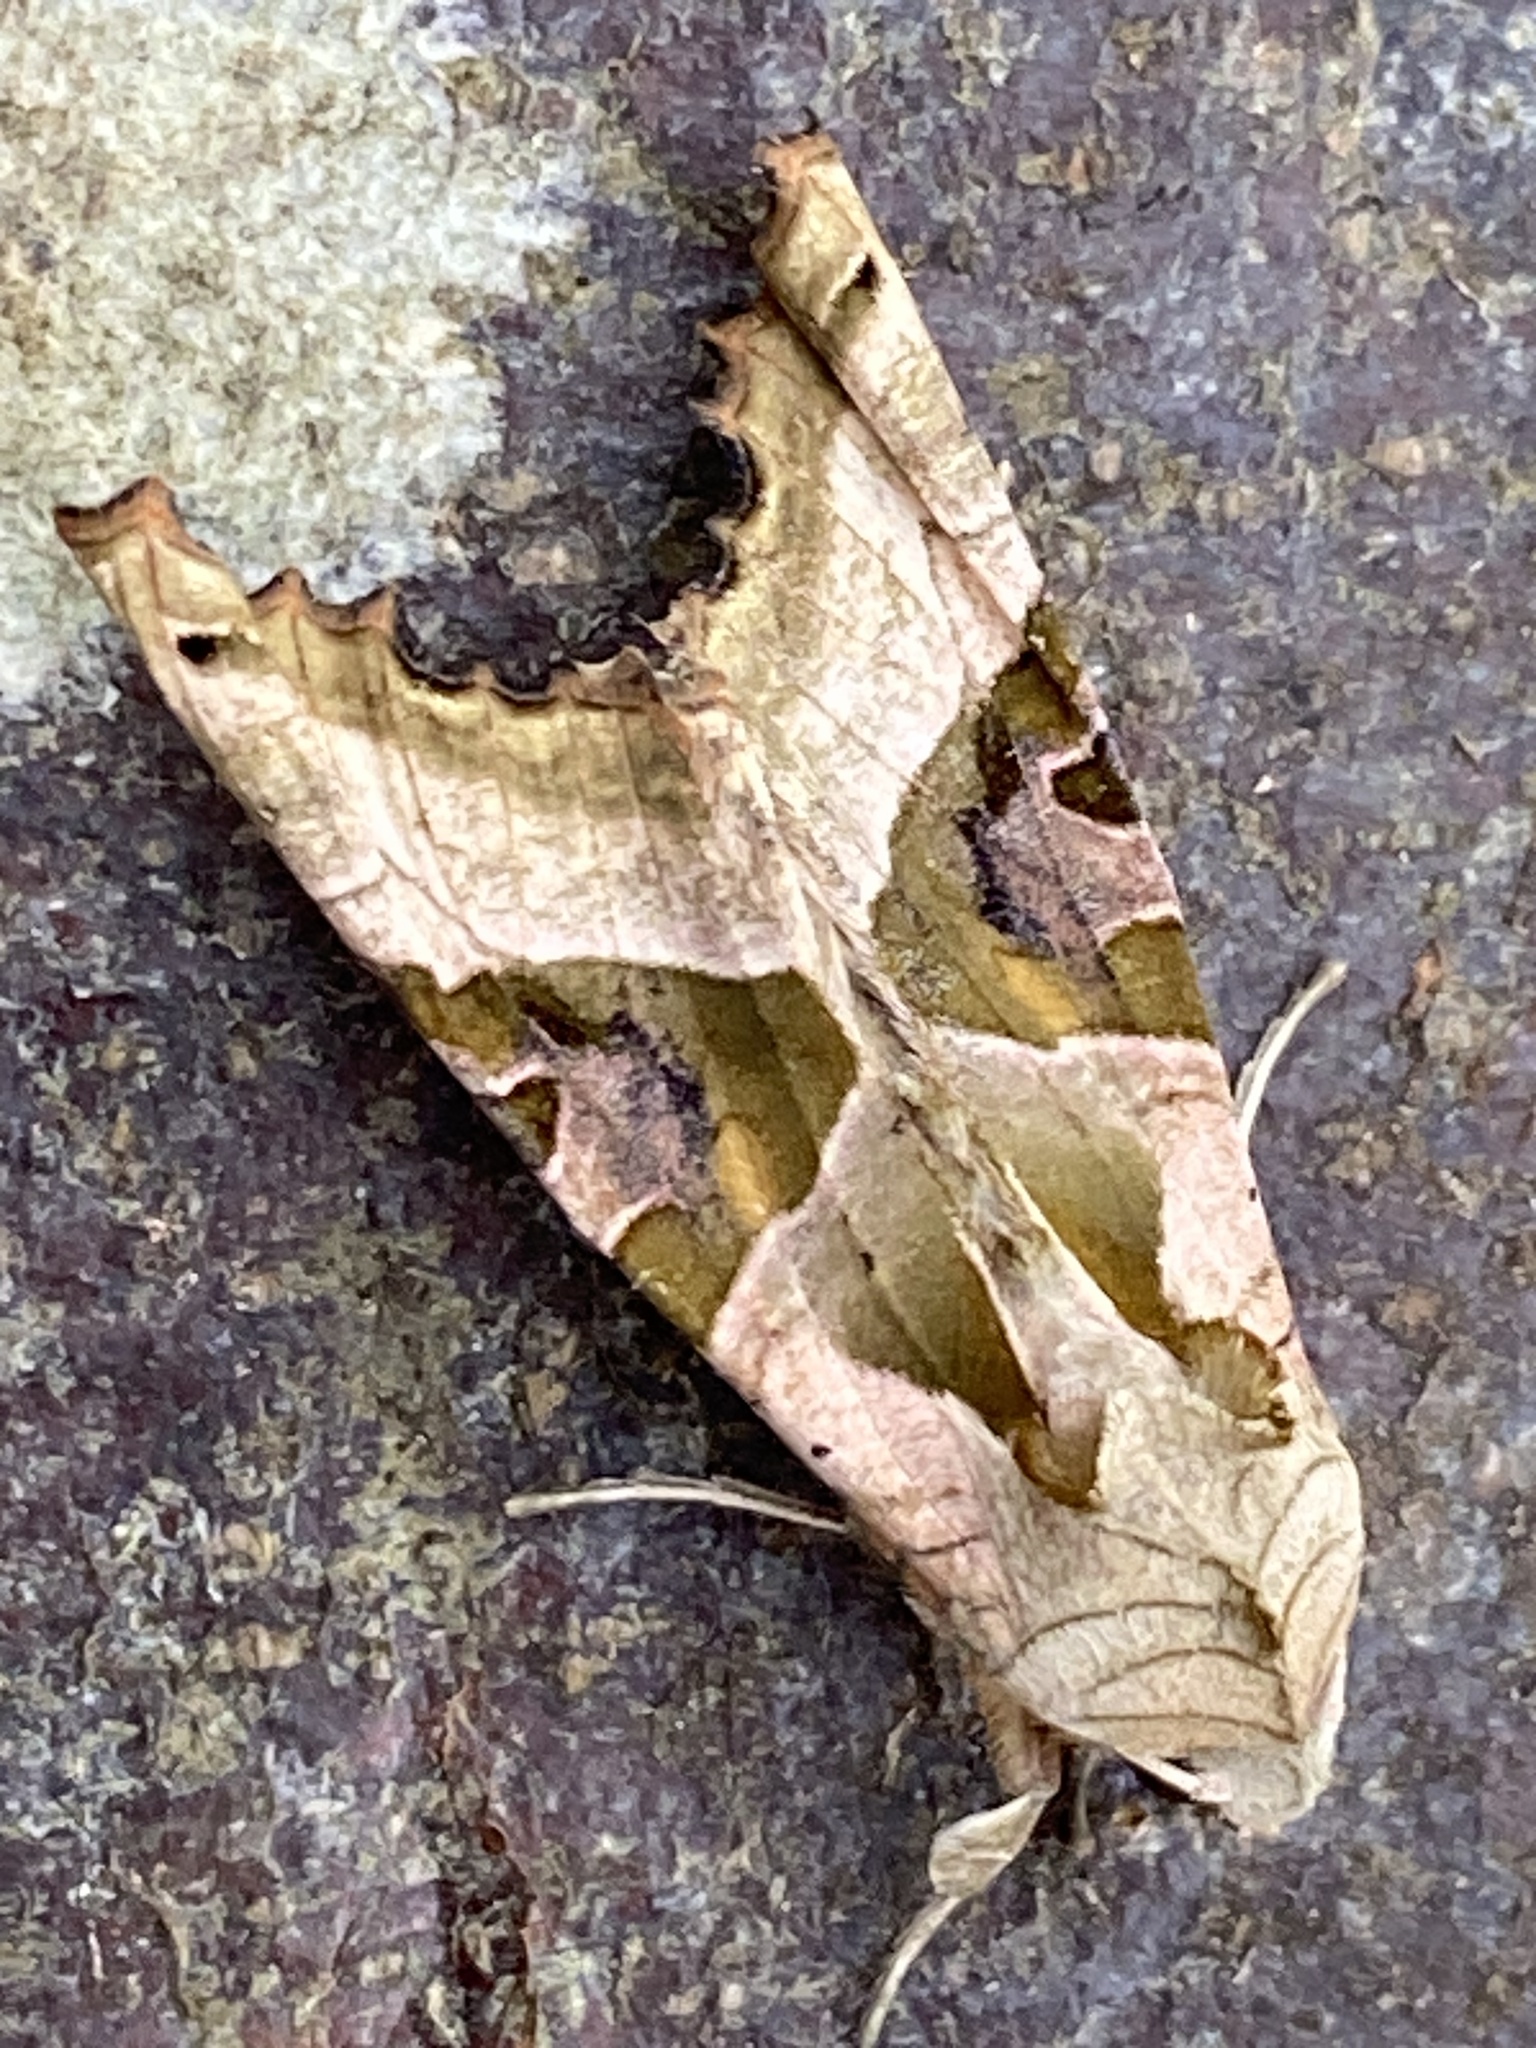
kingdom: Animalia
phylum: Arthropoda
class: Insecta
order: Lepidoptera
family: Noctuidae
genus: Phlogophora
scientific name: Phlogophora meticulosa
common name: Angle shades
